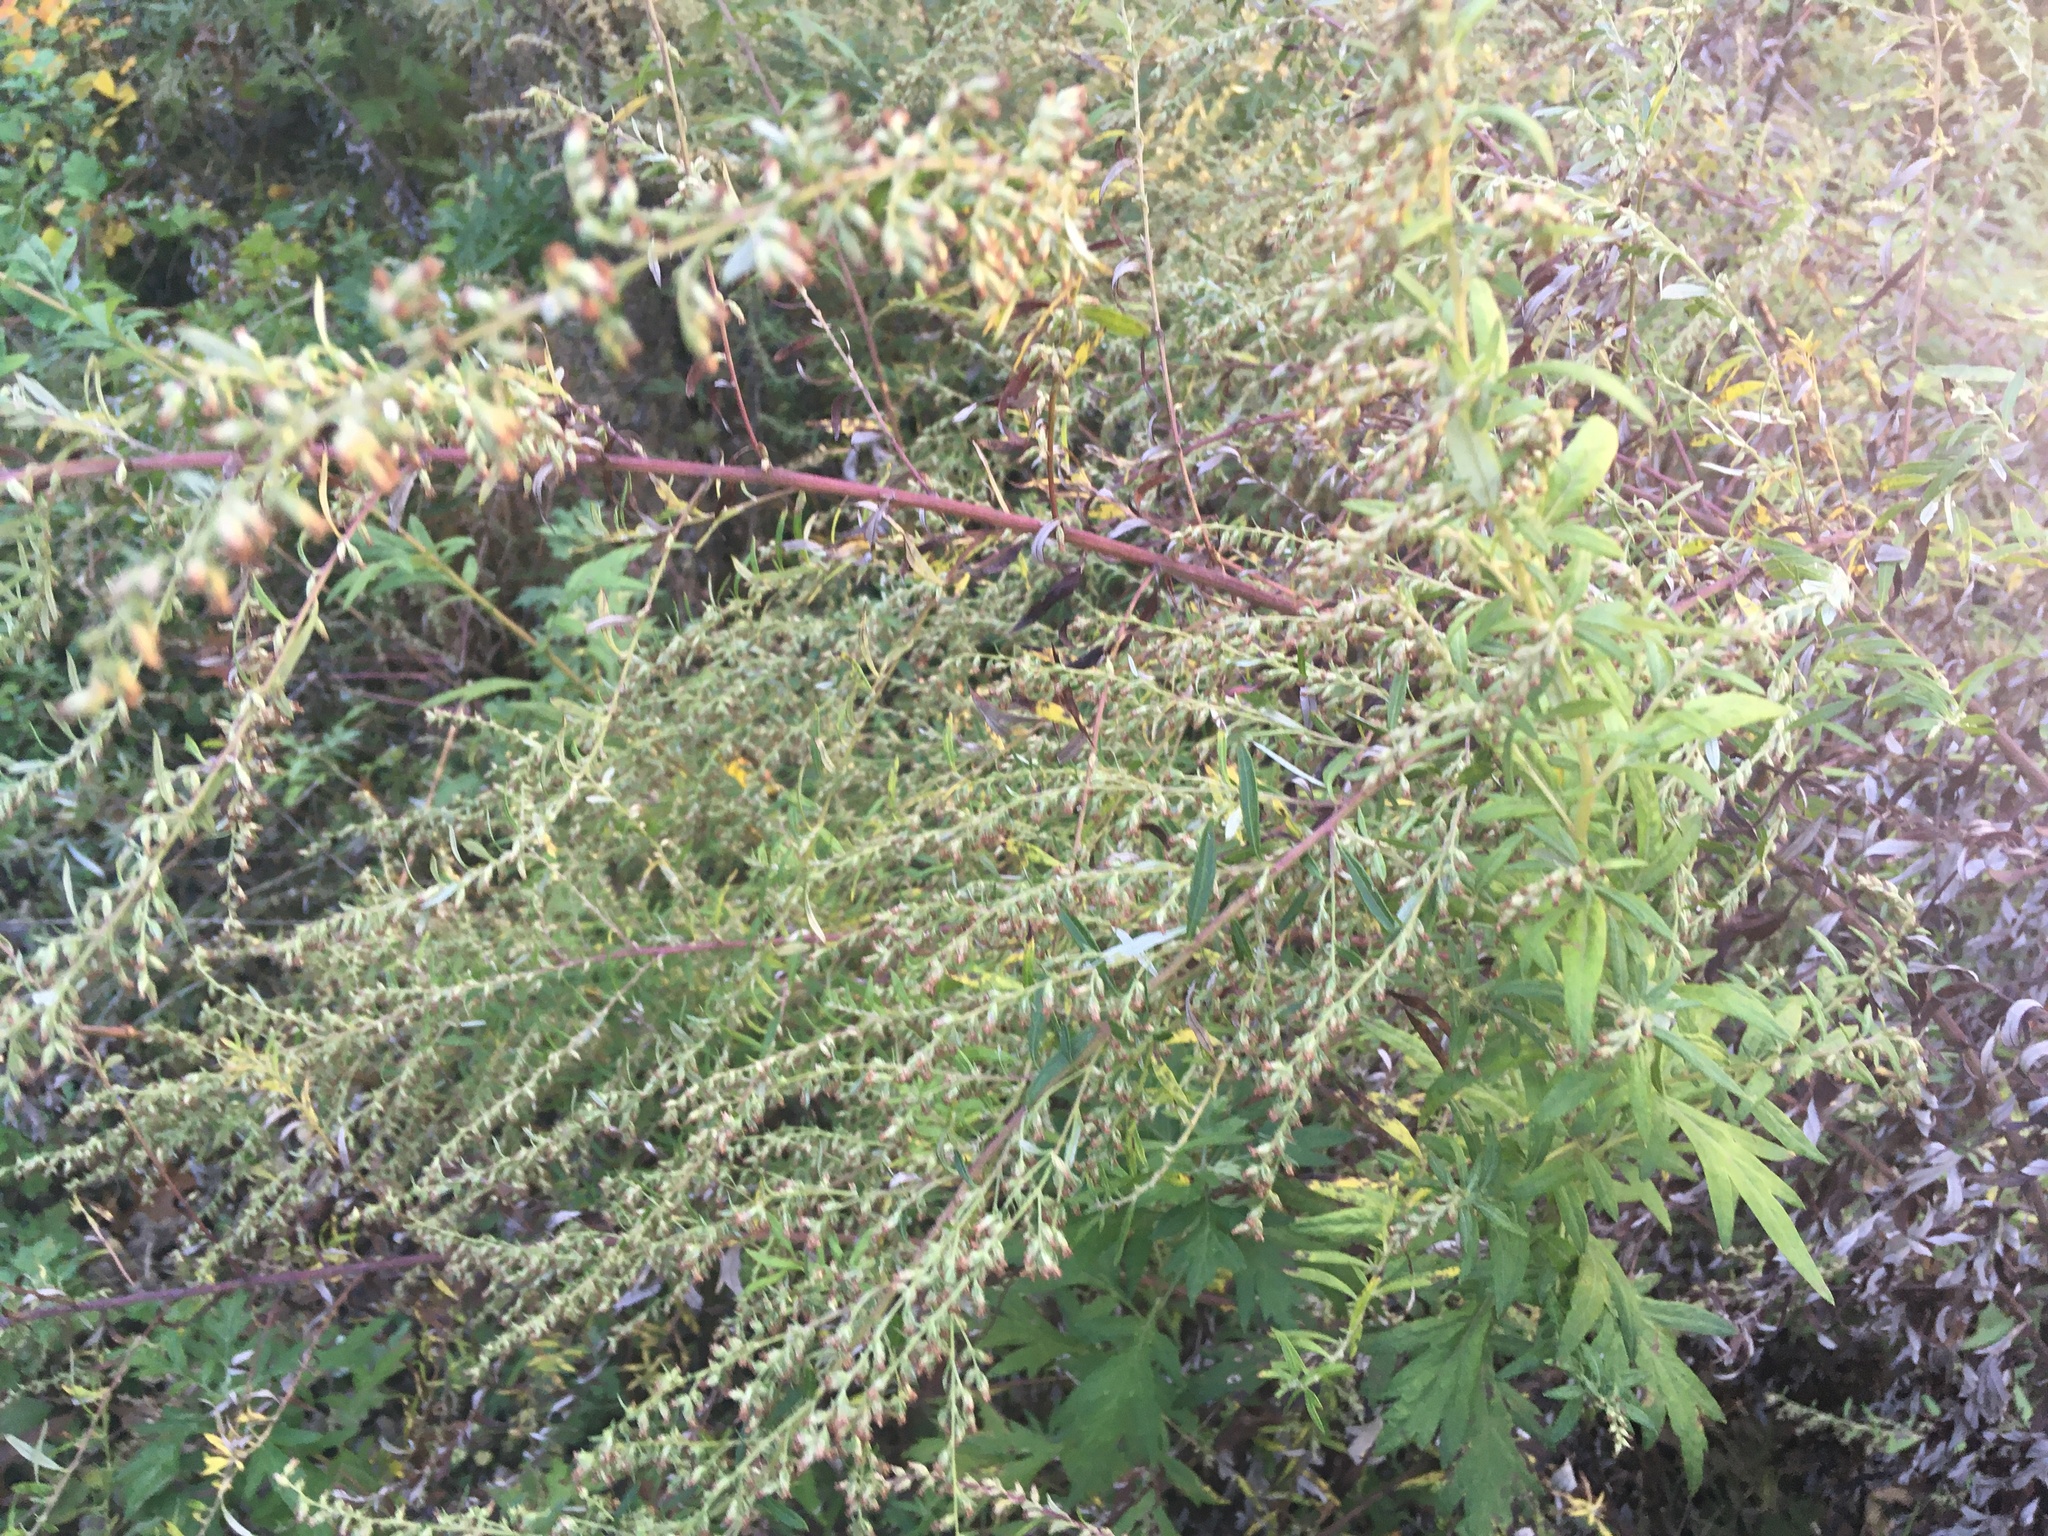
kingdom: Plantae
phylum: Tracheophyta
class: Magnoliopsida
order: Asterales
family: Asteraceae
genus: Artemisia
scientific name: Artemisia vulgaris
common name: Mugwort
